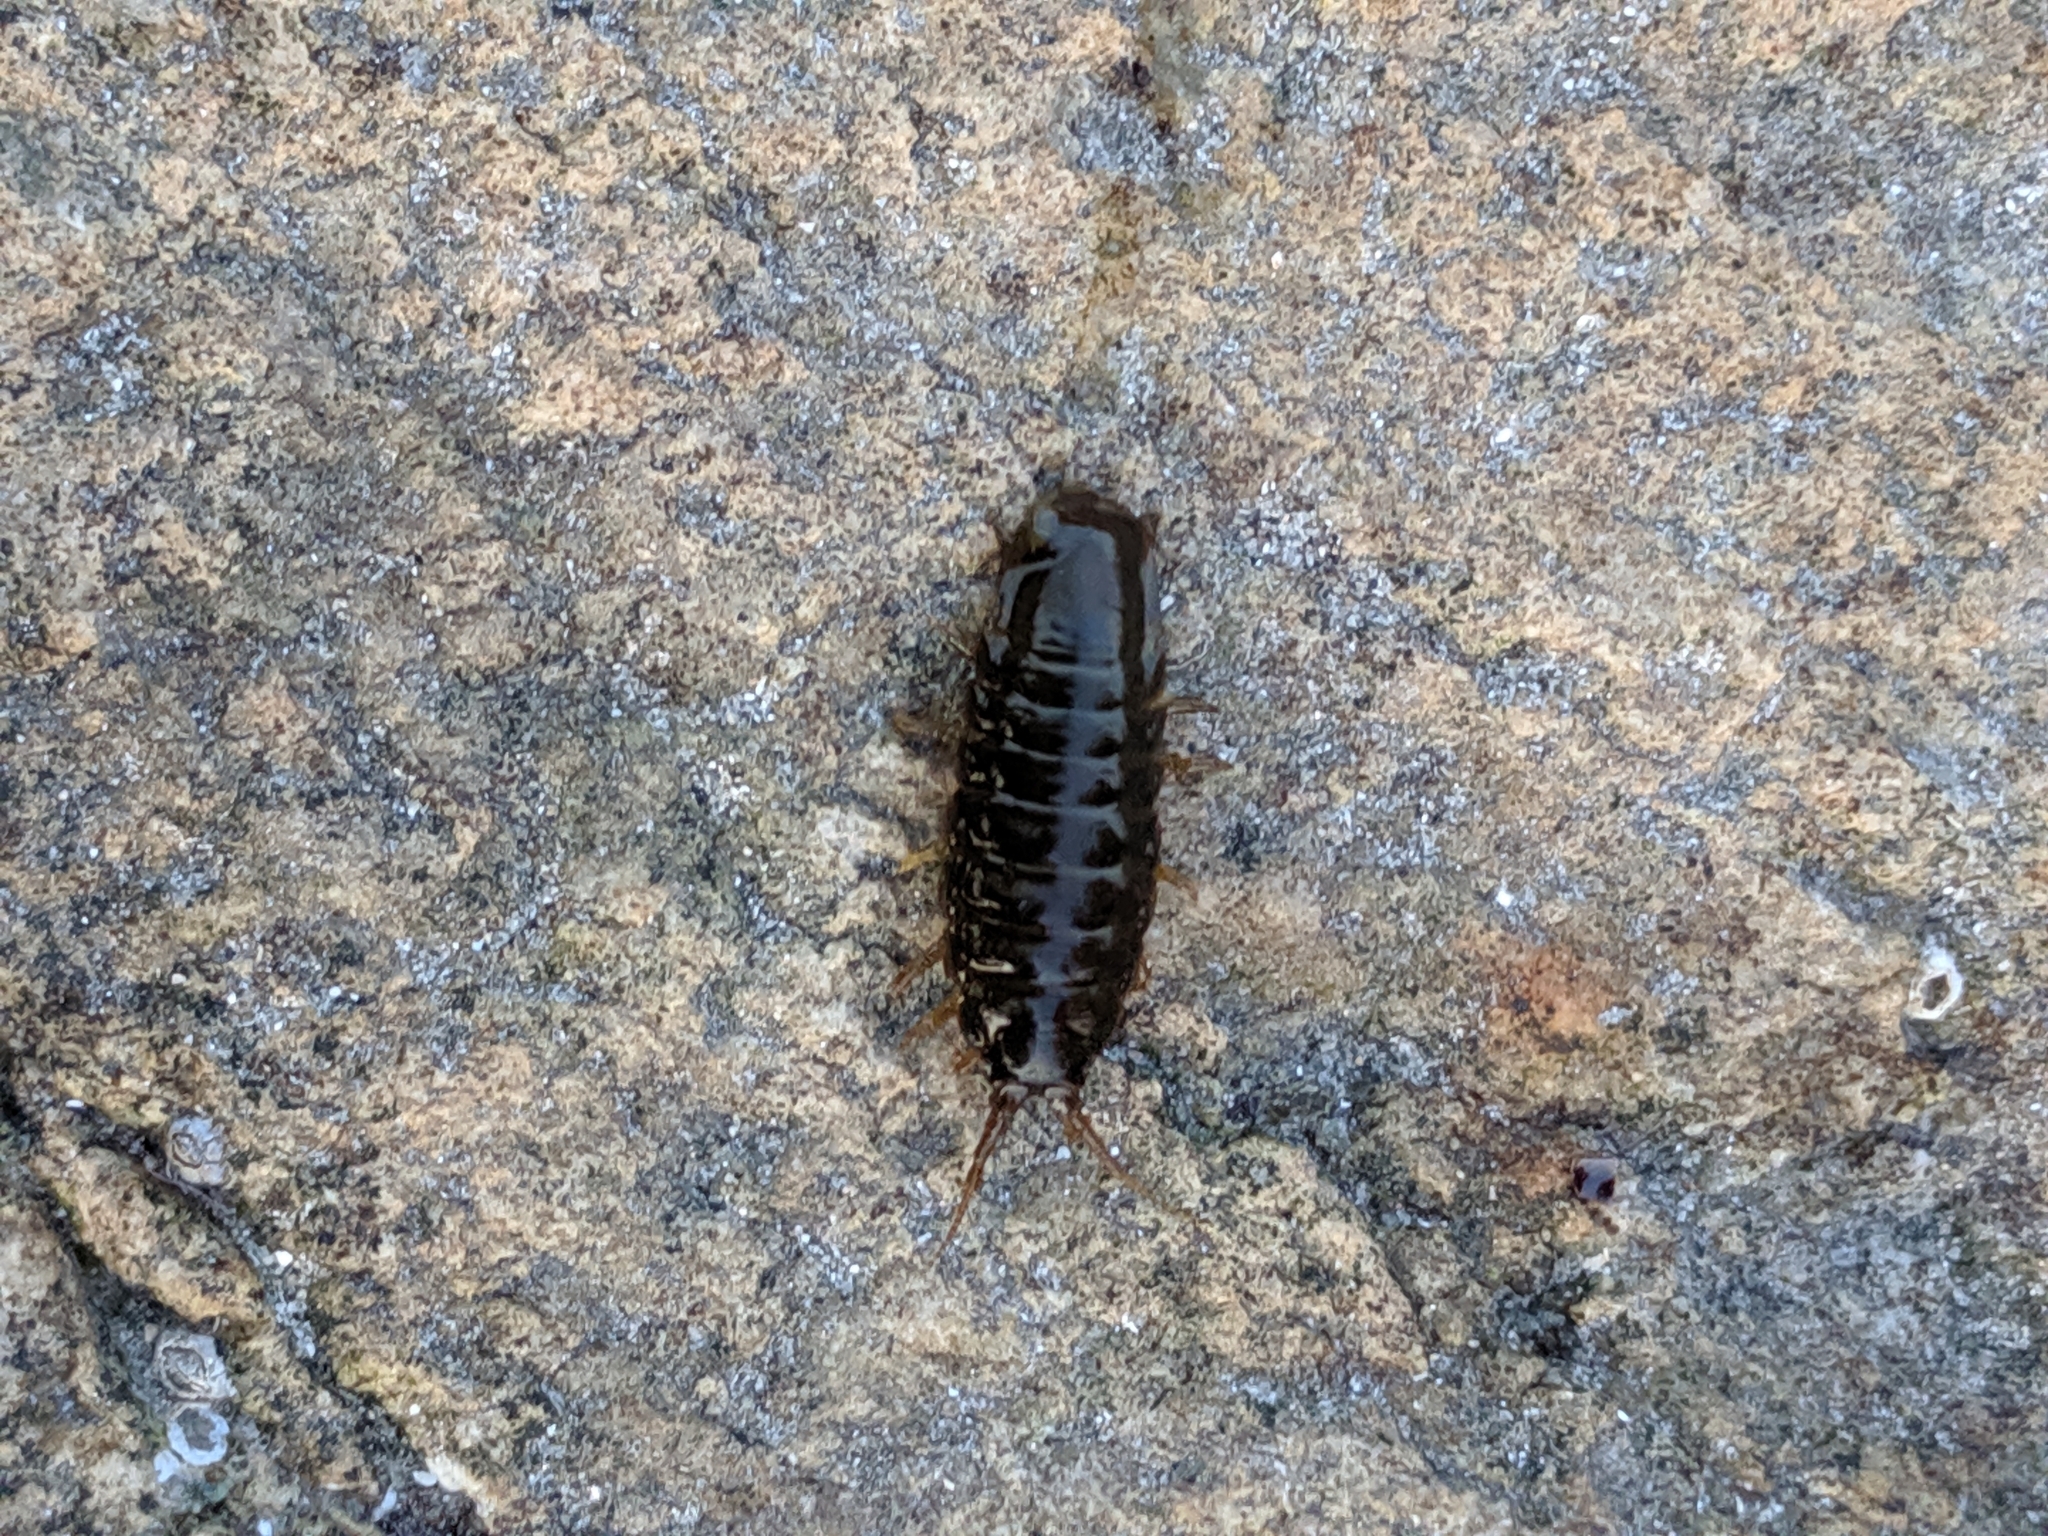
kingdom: Animalia
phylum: Arthropoda
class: Malacostraca
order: Isopoda
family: Idoteidae
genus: Pentidotea
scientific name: Pentidotea wosnesenskii
